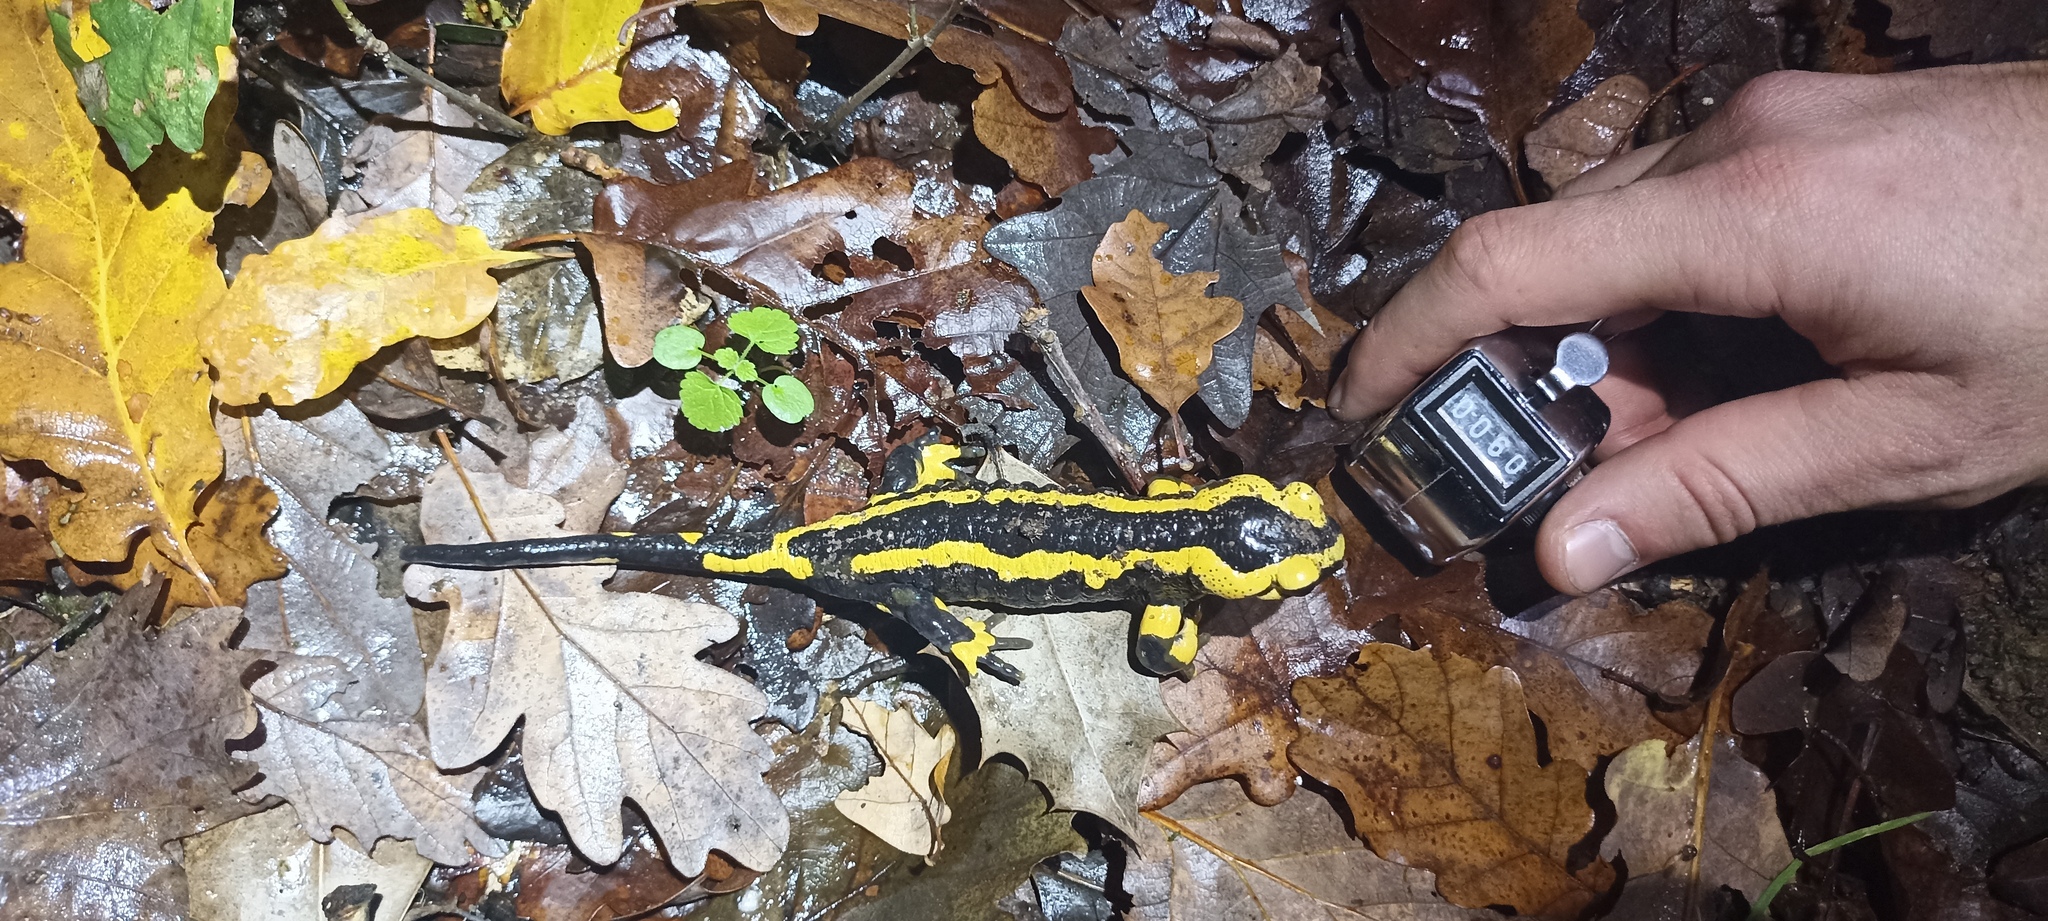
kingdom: Animalia
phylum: Chordata
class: Amphibia
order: Caudata
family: Salamandridae
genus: Salamandra
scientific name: Salamandra salamandra
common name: Fire salamander
